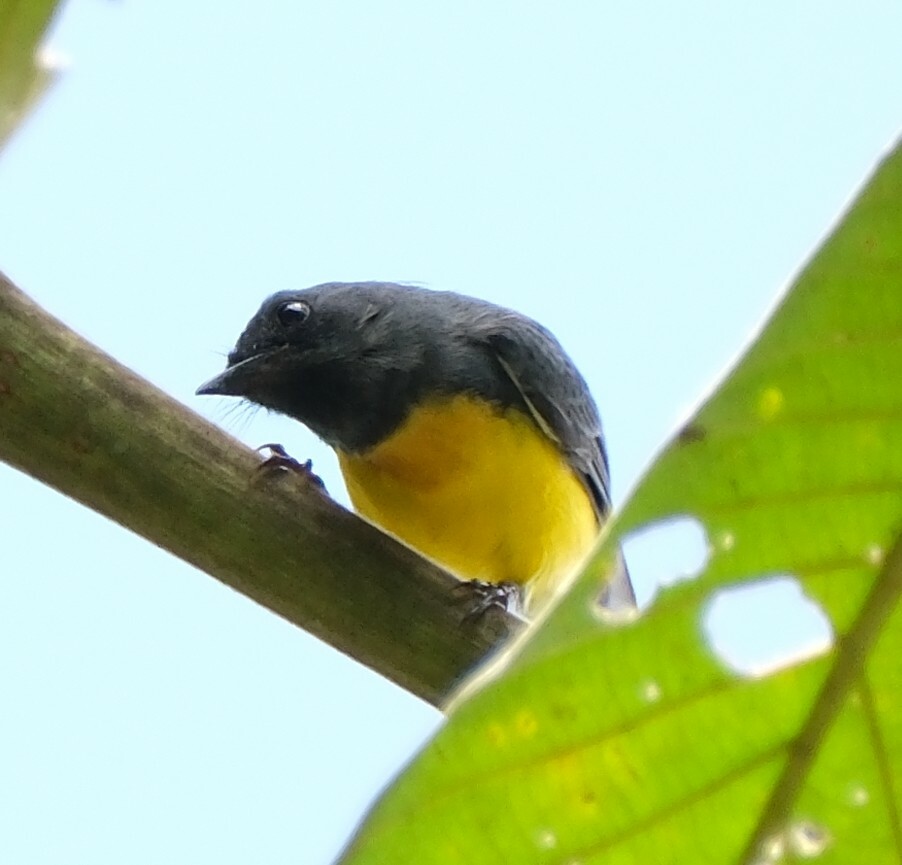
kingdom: Animalia
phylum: Chordata
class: Aves
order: Passeriformes
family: Parulidae
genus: Myioborus
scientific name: Myioborus miniatus
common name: Slate-throated redstart
